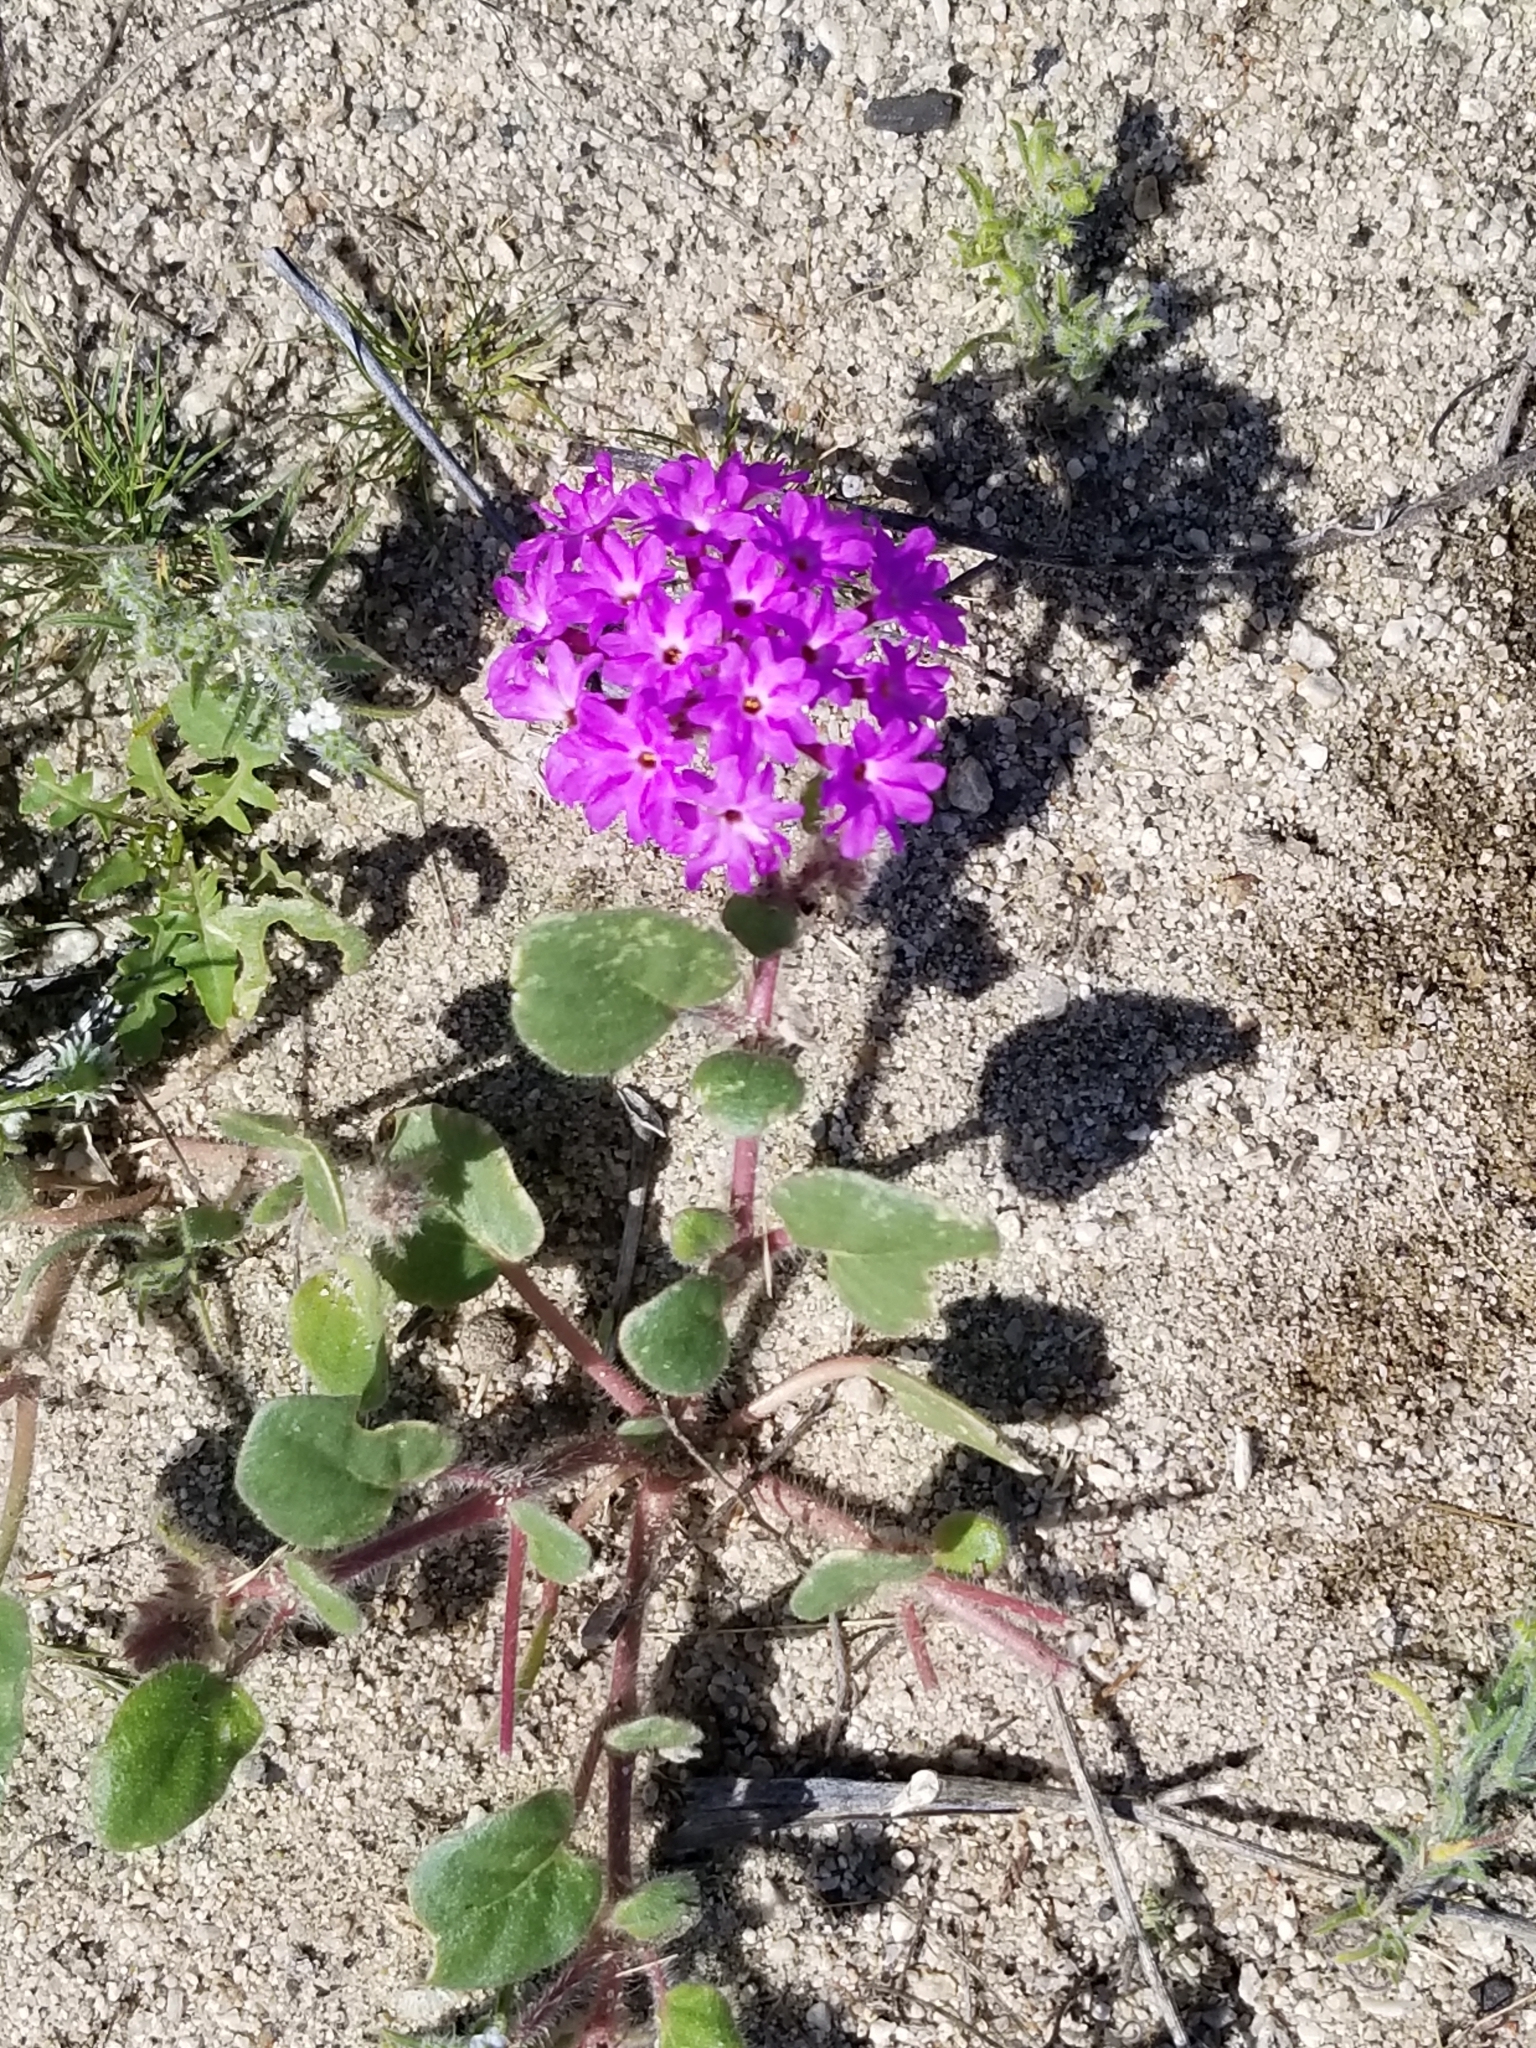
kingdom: Plantae
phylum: Tracheophyta
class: Magnoliopsida
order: Caryophyllales
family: Nyctaginaceae
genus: Abronia
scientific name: Abronia villosa
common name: Desert sand-verbena
